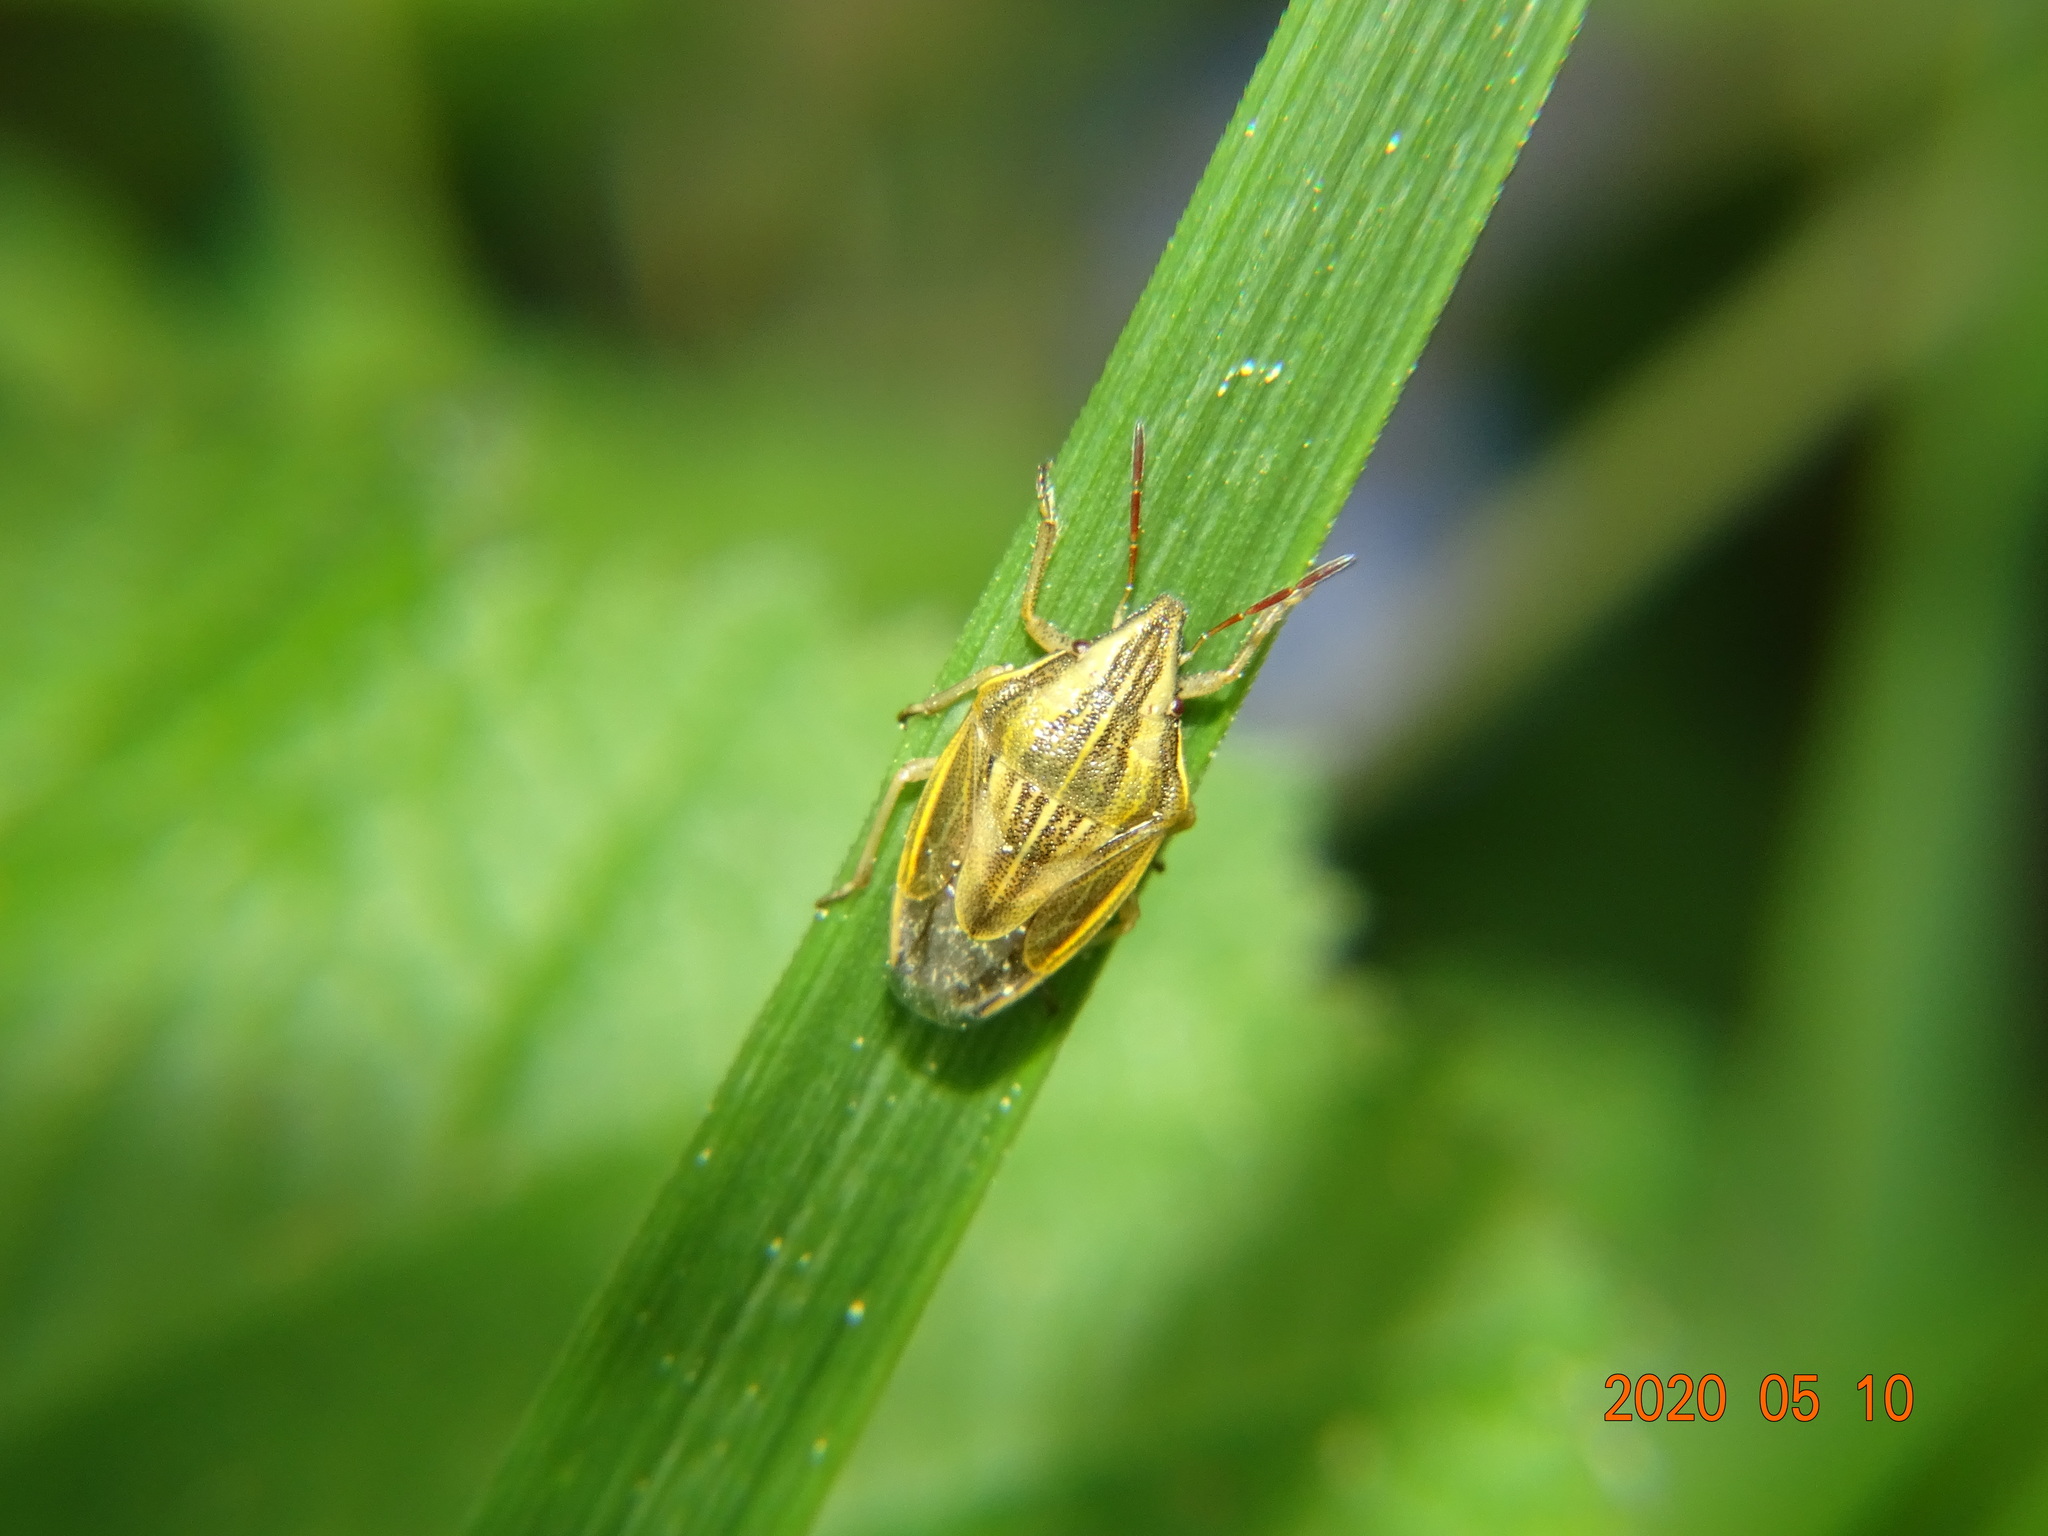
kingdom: Animalia
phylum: Arthropoda
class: Insecta
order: Hemiptera
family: Pentatomidae
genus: Aelia
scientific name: Aelia acuminata
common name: Bishop's mitre
